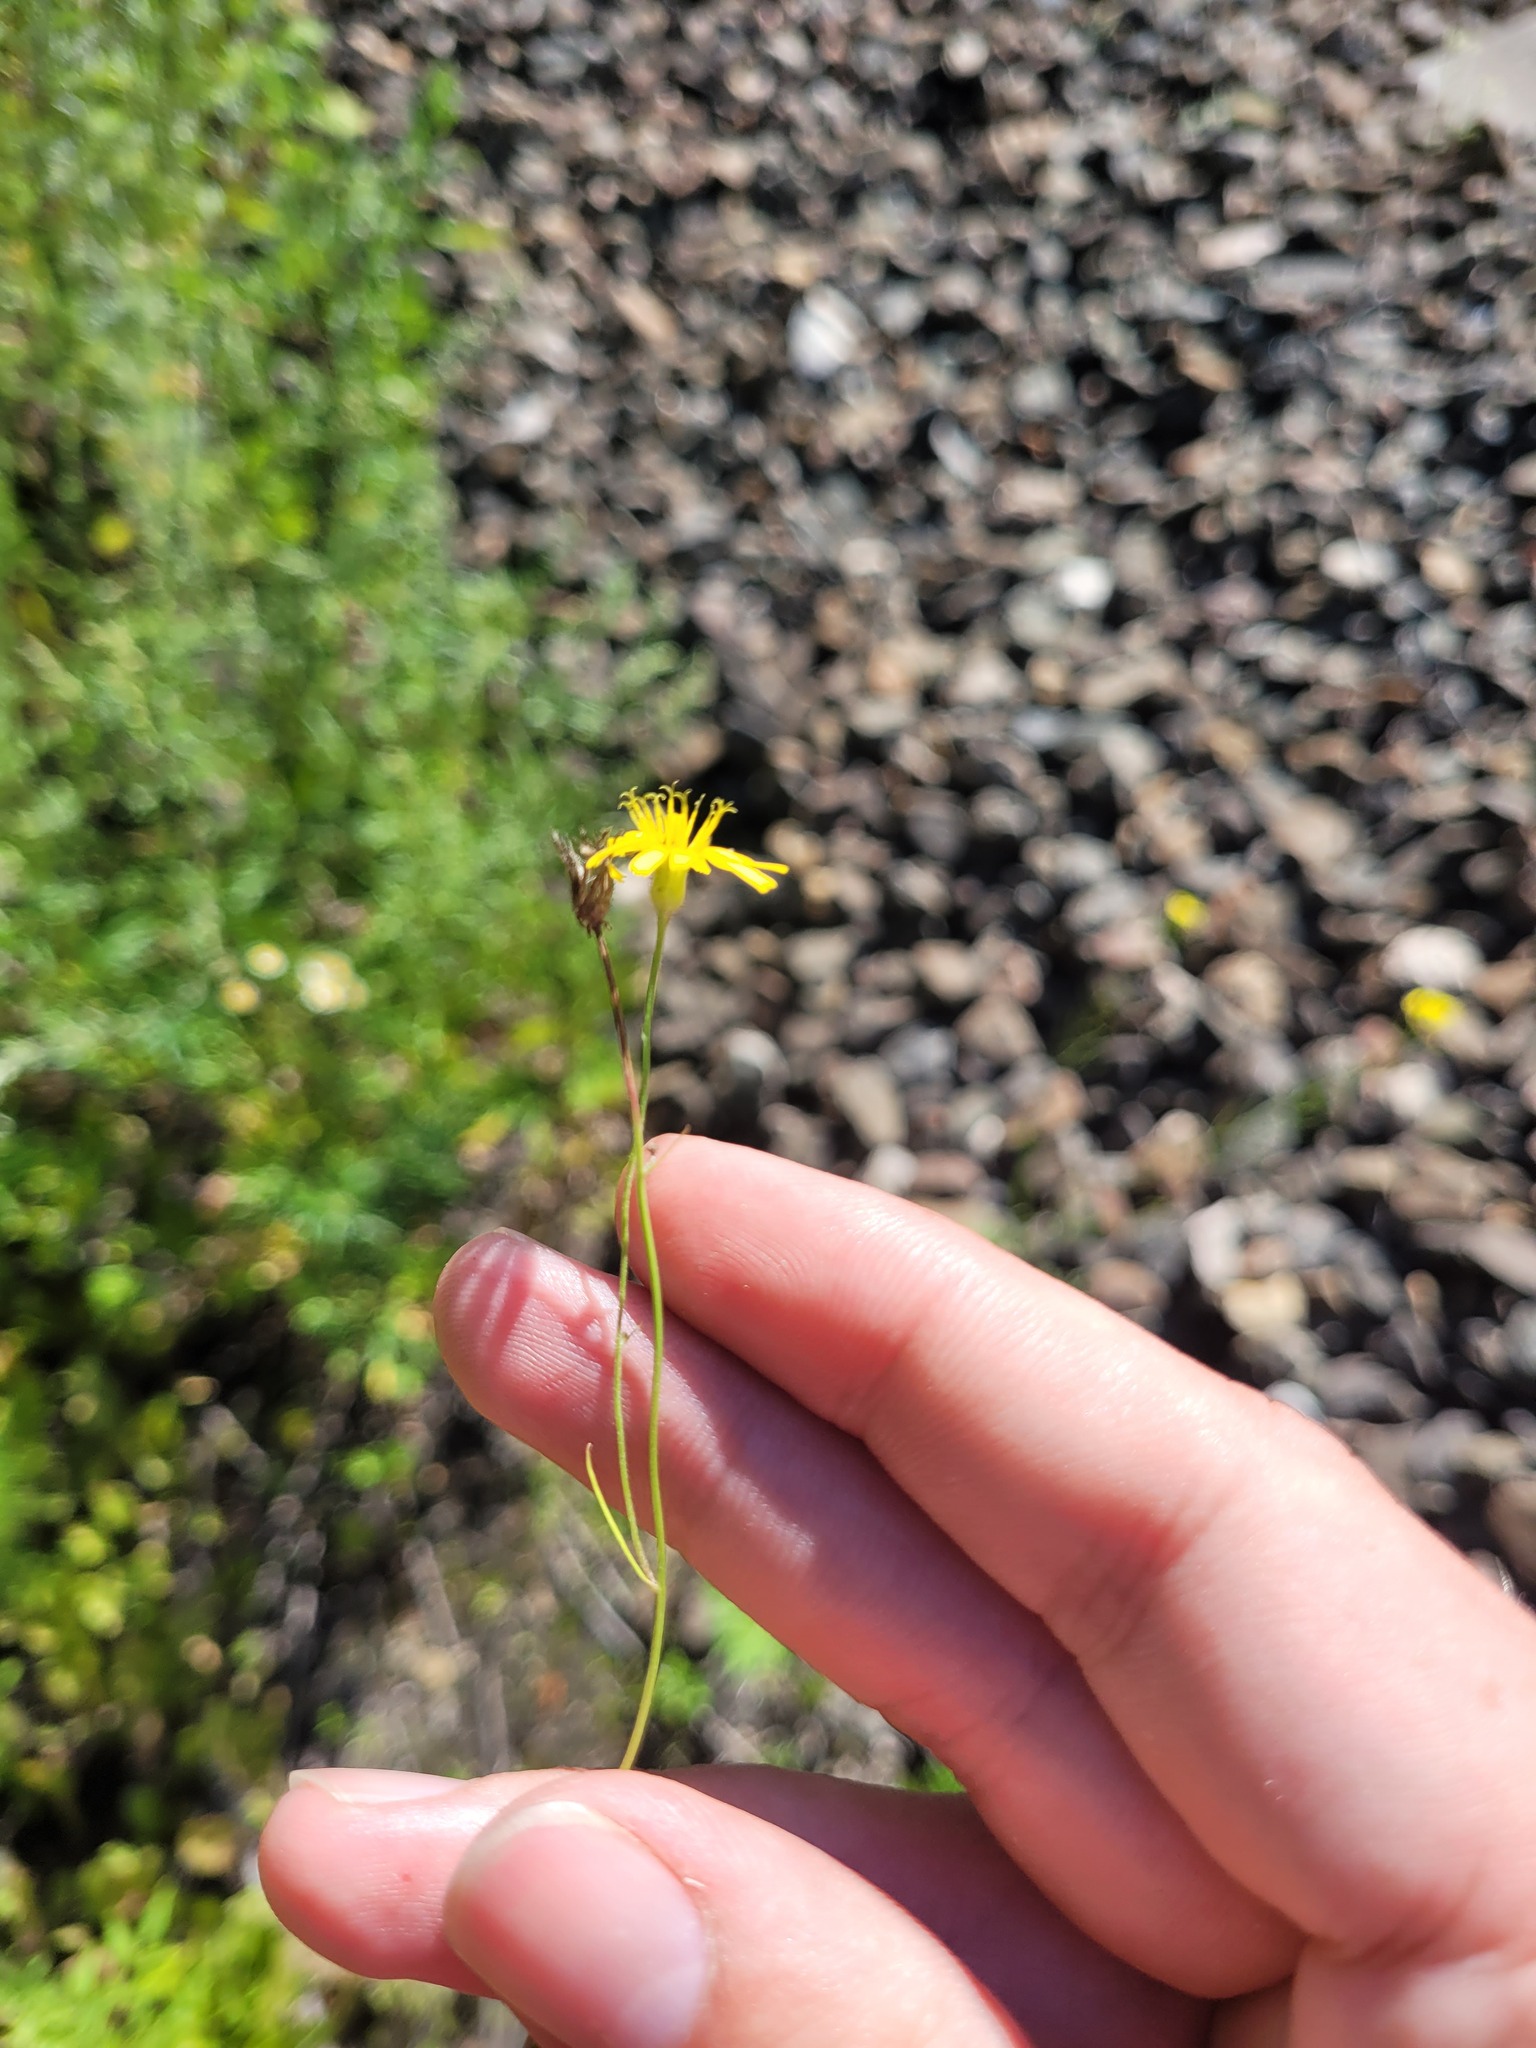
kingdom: Plantae
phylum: Tracheophyta
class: Magnoliopsida
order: Asterales
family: Asteraceae
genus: Crepis
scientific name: Crepis tectorum
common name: Narrow-leaved hawk's-beard
